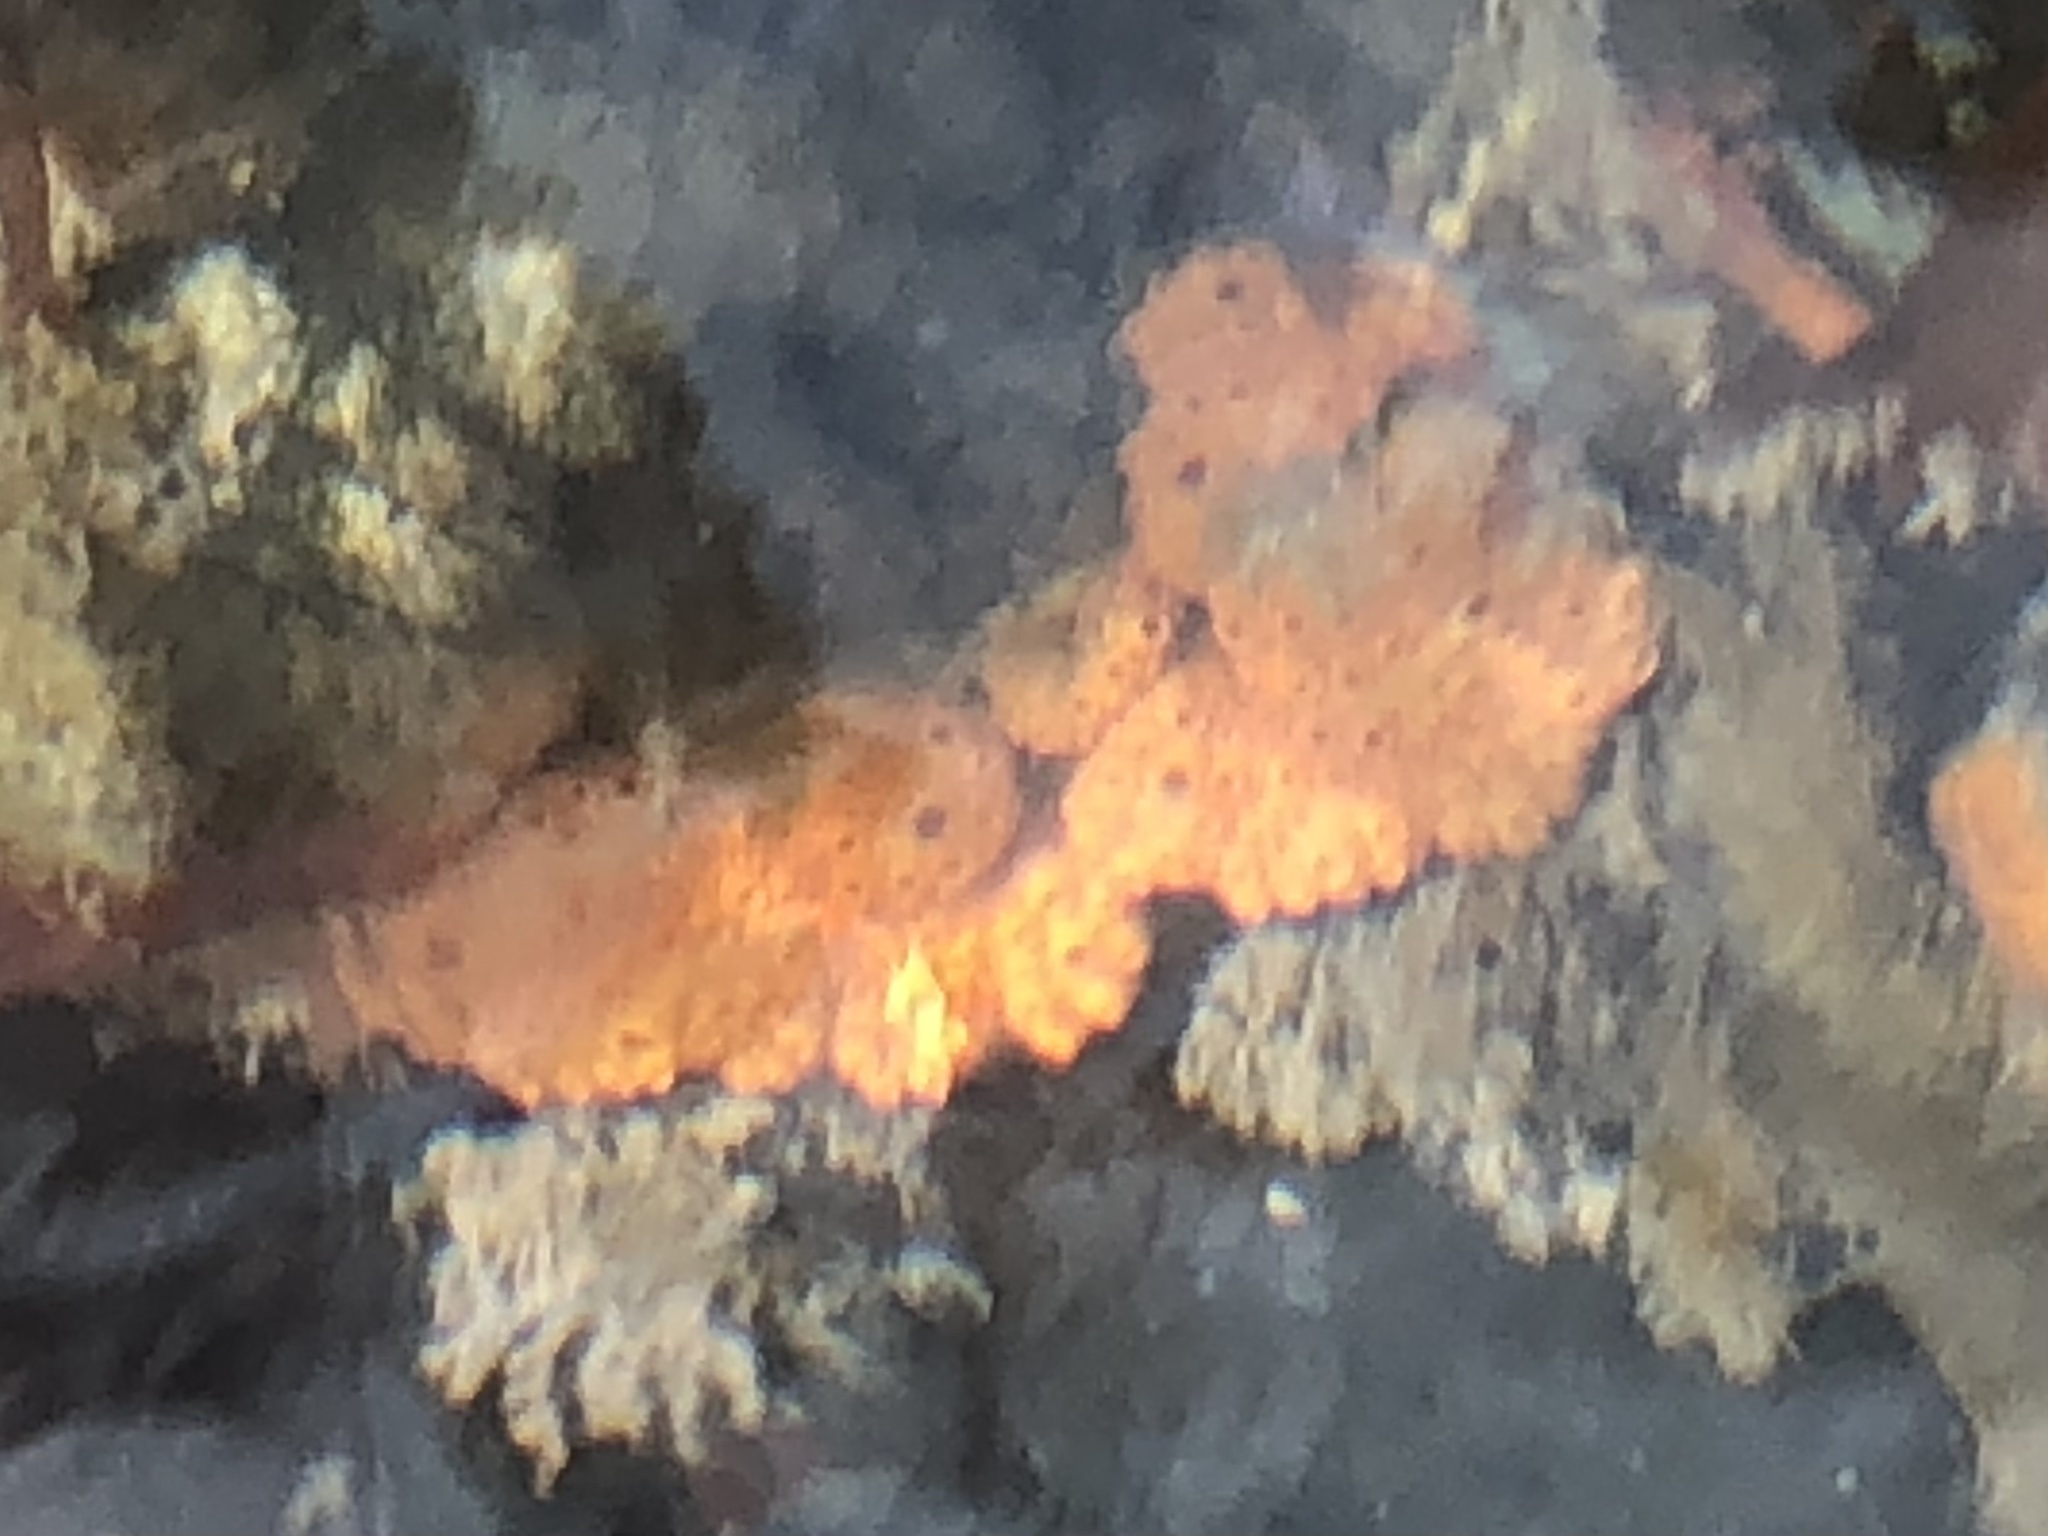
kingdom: Animalia
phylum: Chordata
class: Ascidiacea
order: Stolidobranchia
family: Styelidae
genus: Botrylloides
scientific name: Botrylloides violaceus
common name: Colonial sea squirt
